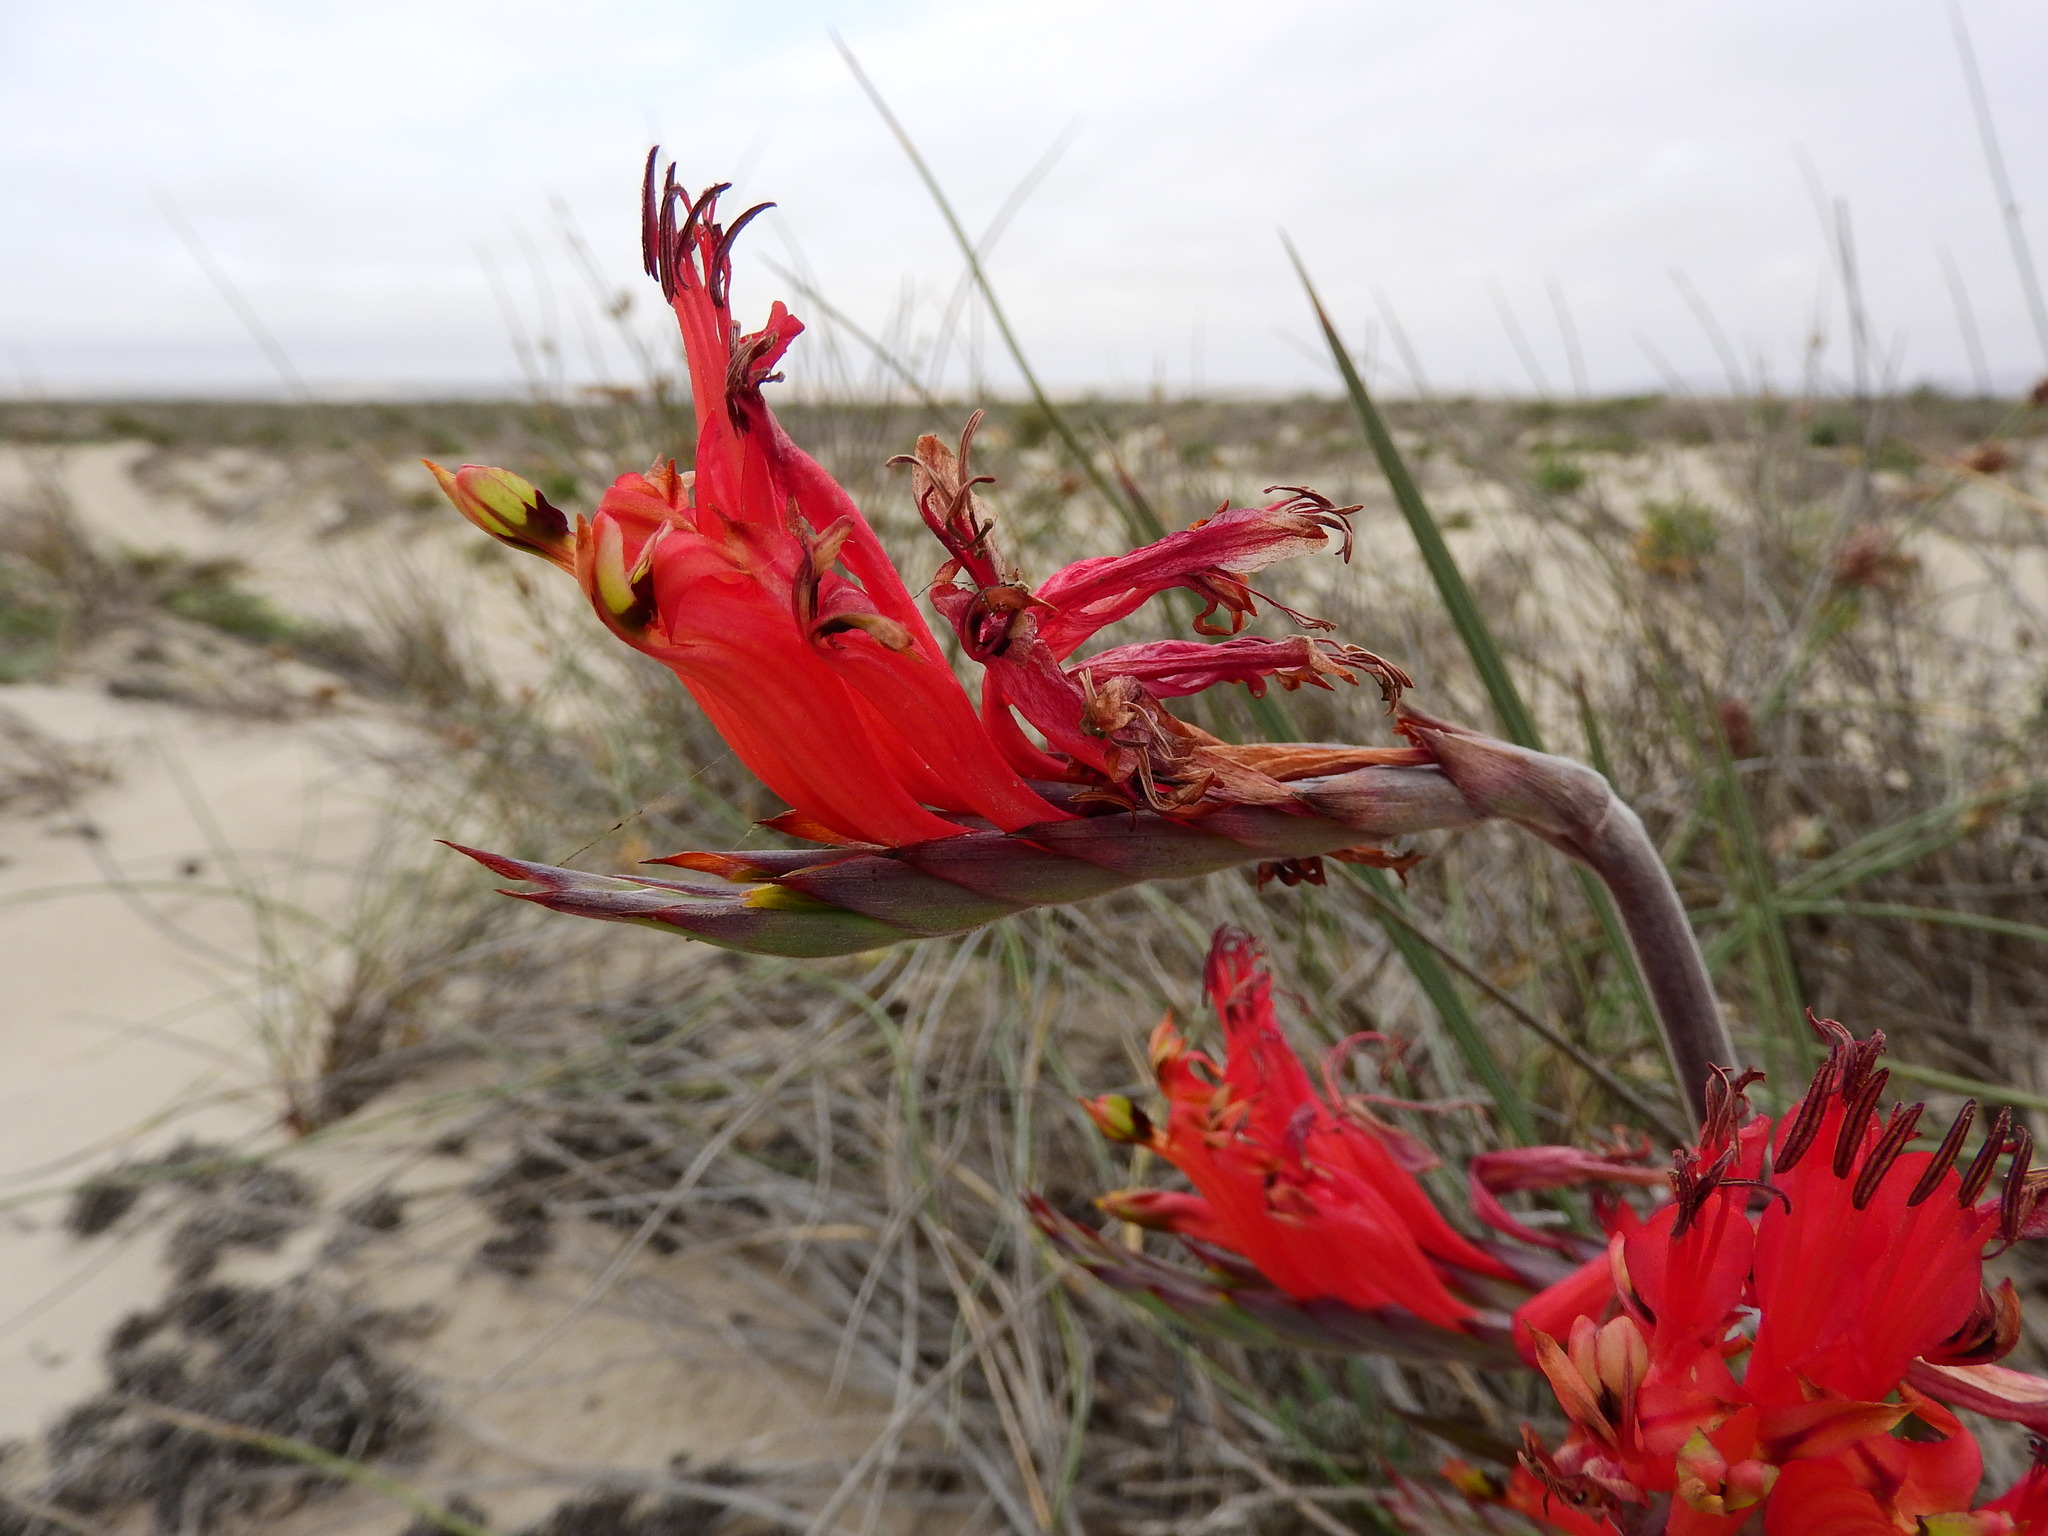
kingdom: Plantae
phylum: Tracheophyta
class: Liliopsida
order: Asparagales
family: Iridaceae
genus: Babiana
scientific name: Babiana hirsuta
